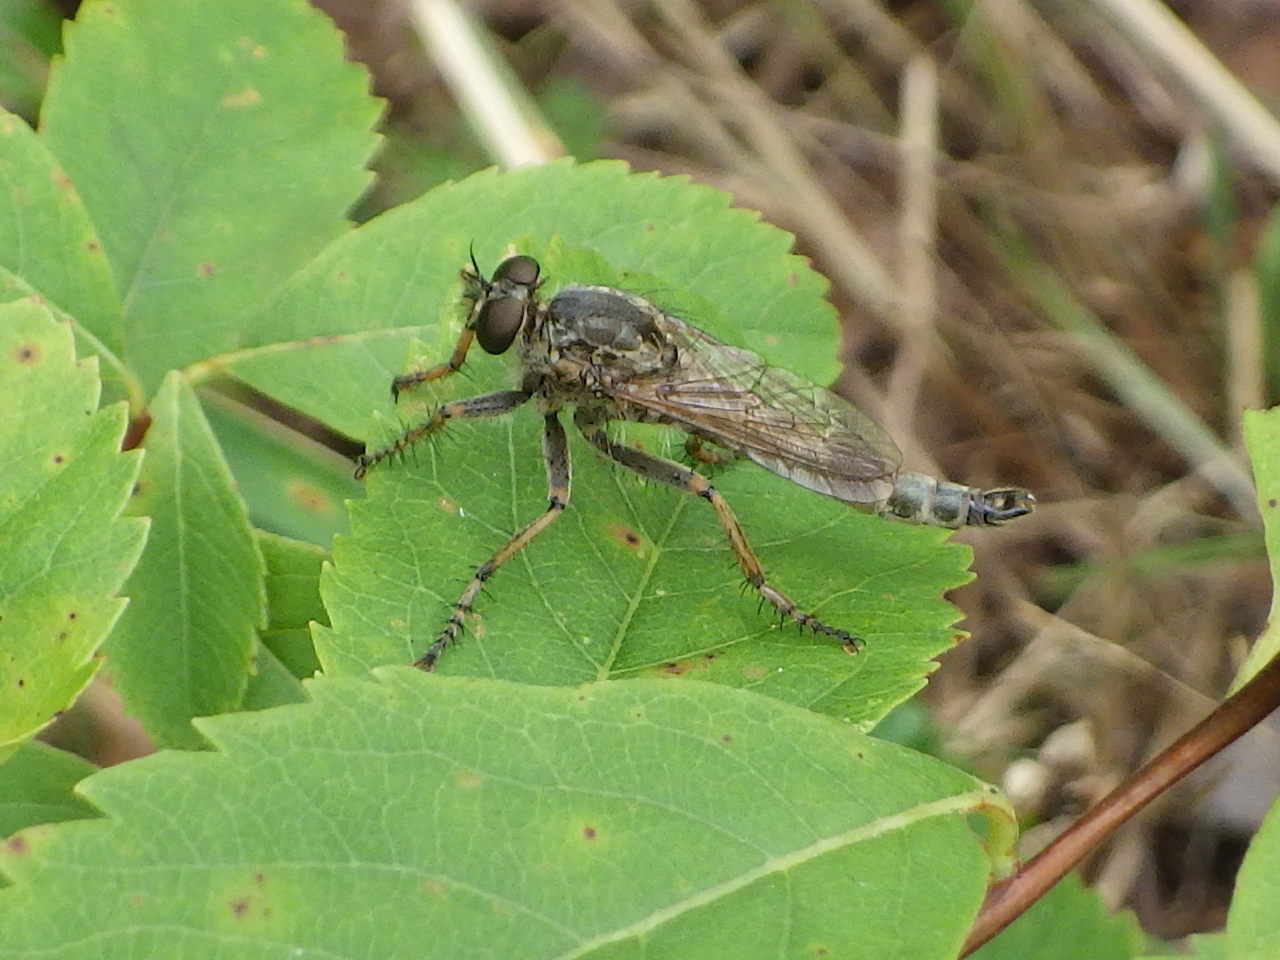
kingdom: Animalia
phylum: Arthropoda
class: Insecta
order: Diptera
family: Asilidae
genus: Machimus
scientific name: Machimus snowii
